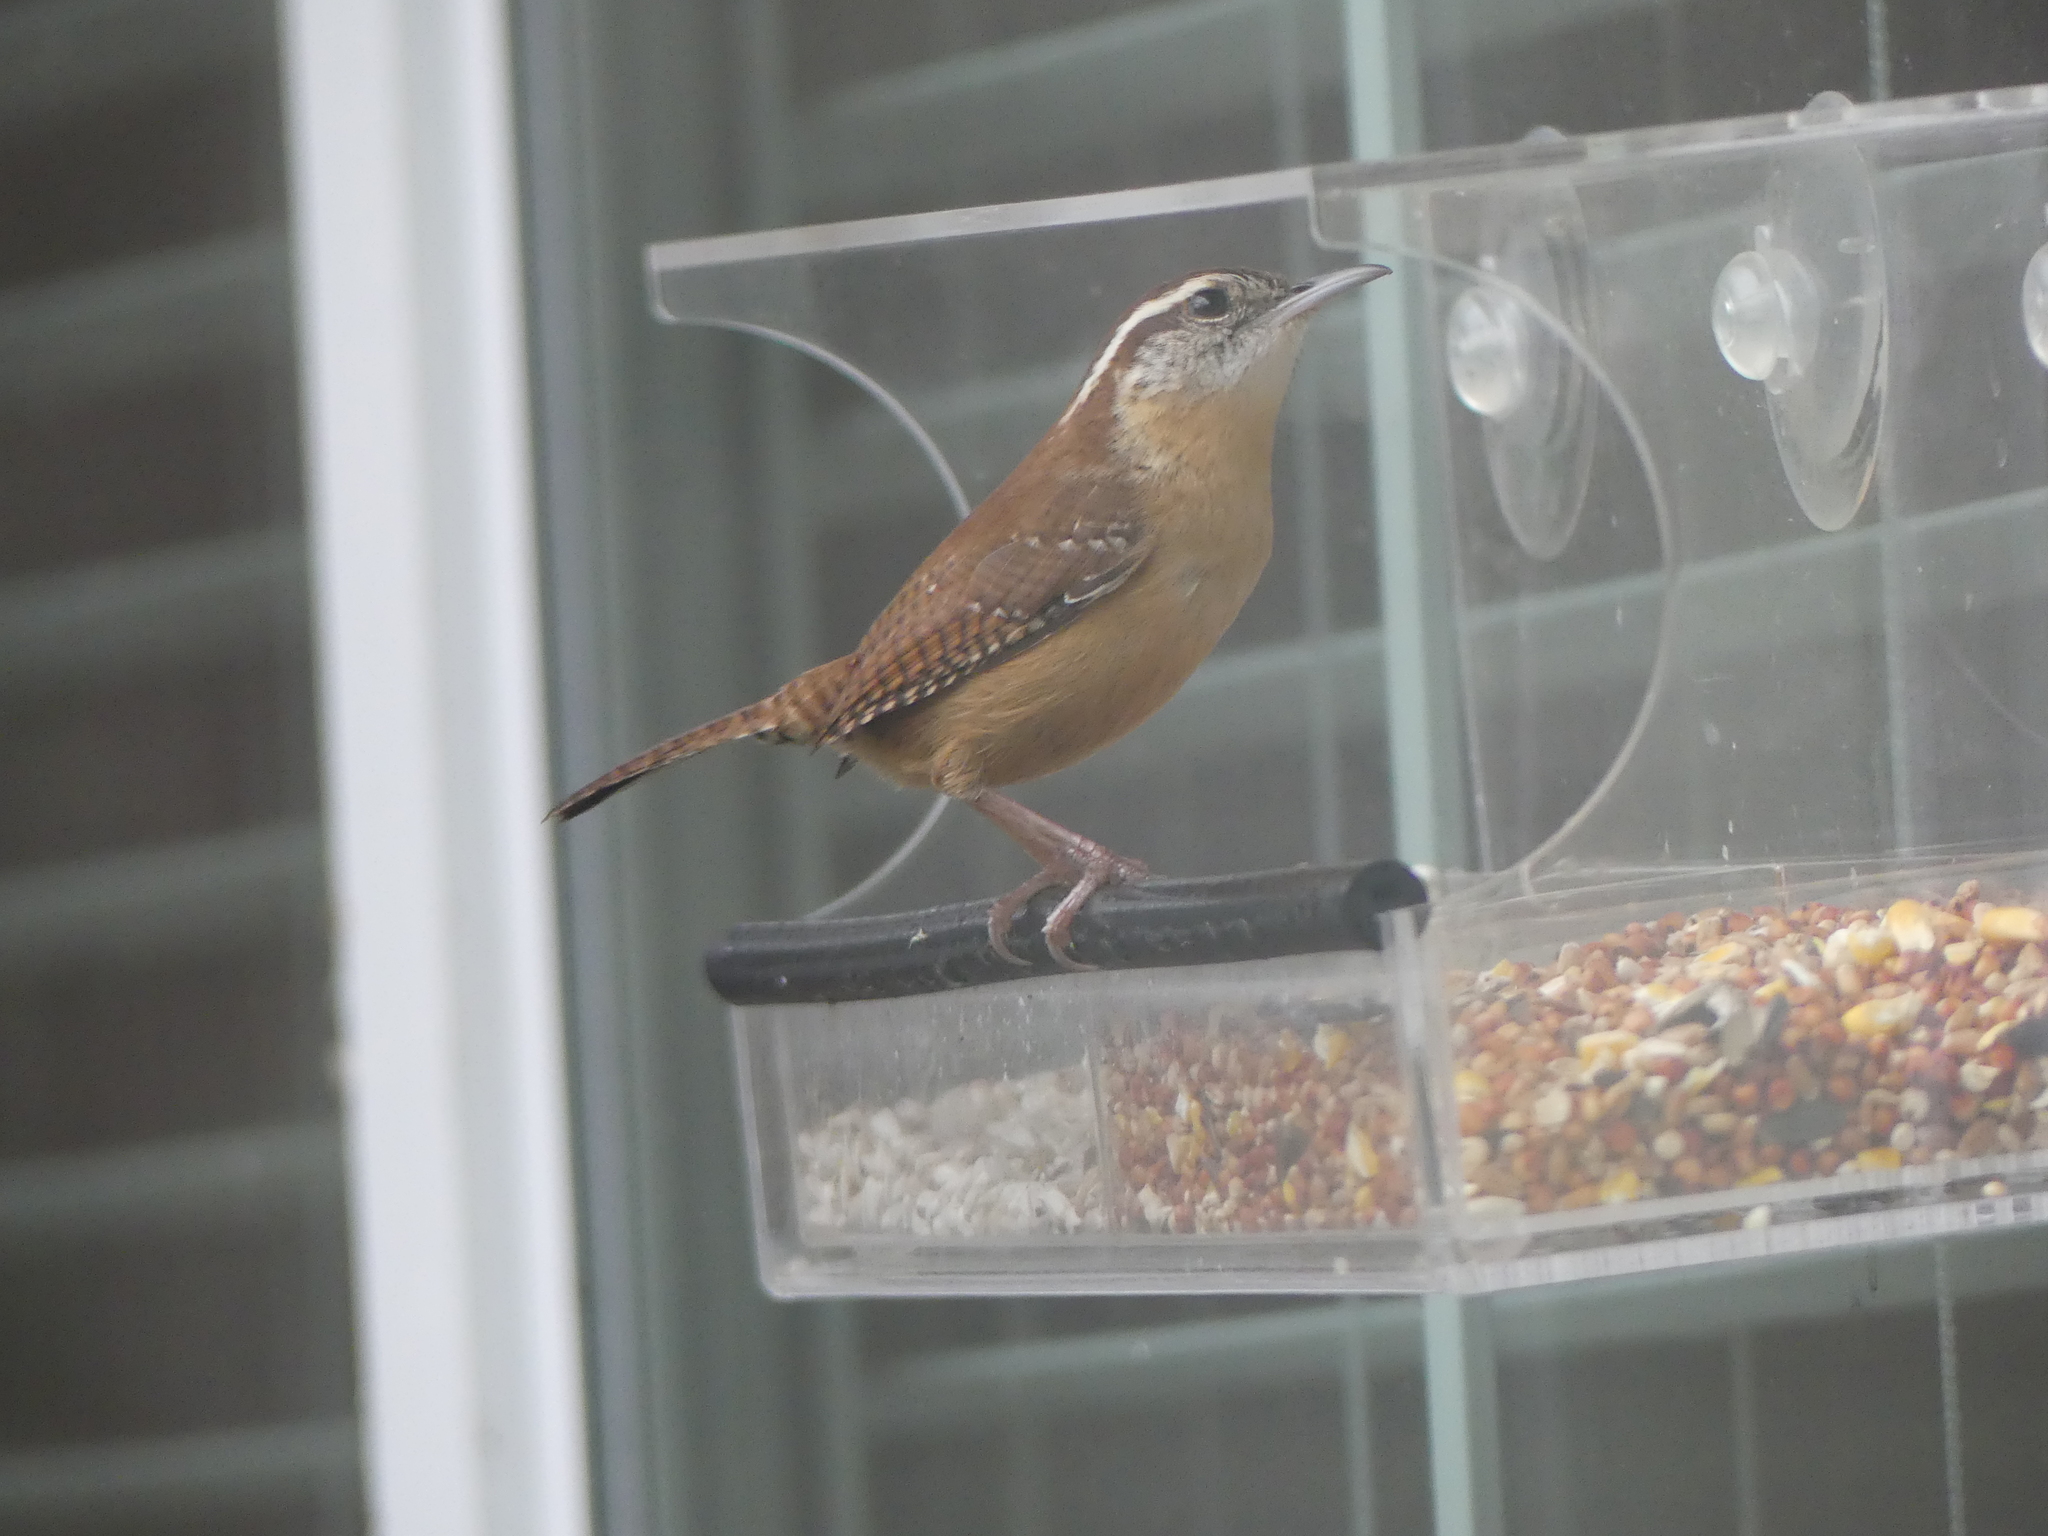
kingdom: Animalia
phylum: Chordata
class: Aves
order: Passeriformes
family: Troglodytidae
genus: Thryothorus
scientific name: Thryothorus ludovicianus
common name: Carolina wren
